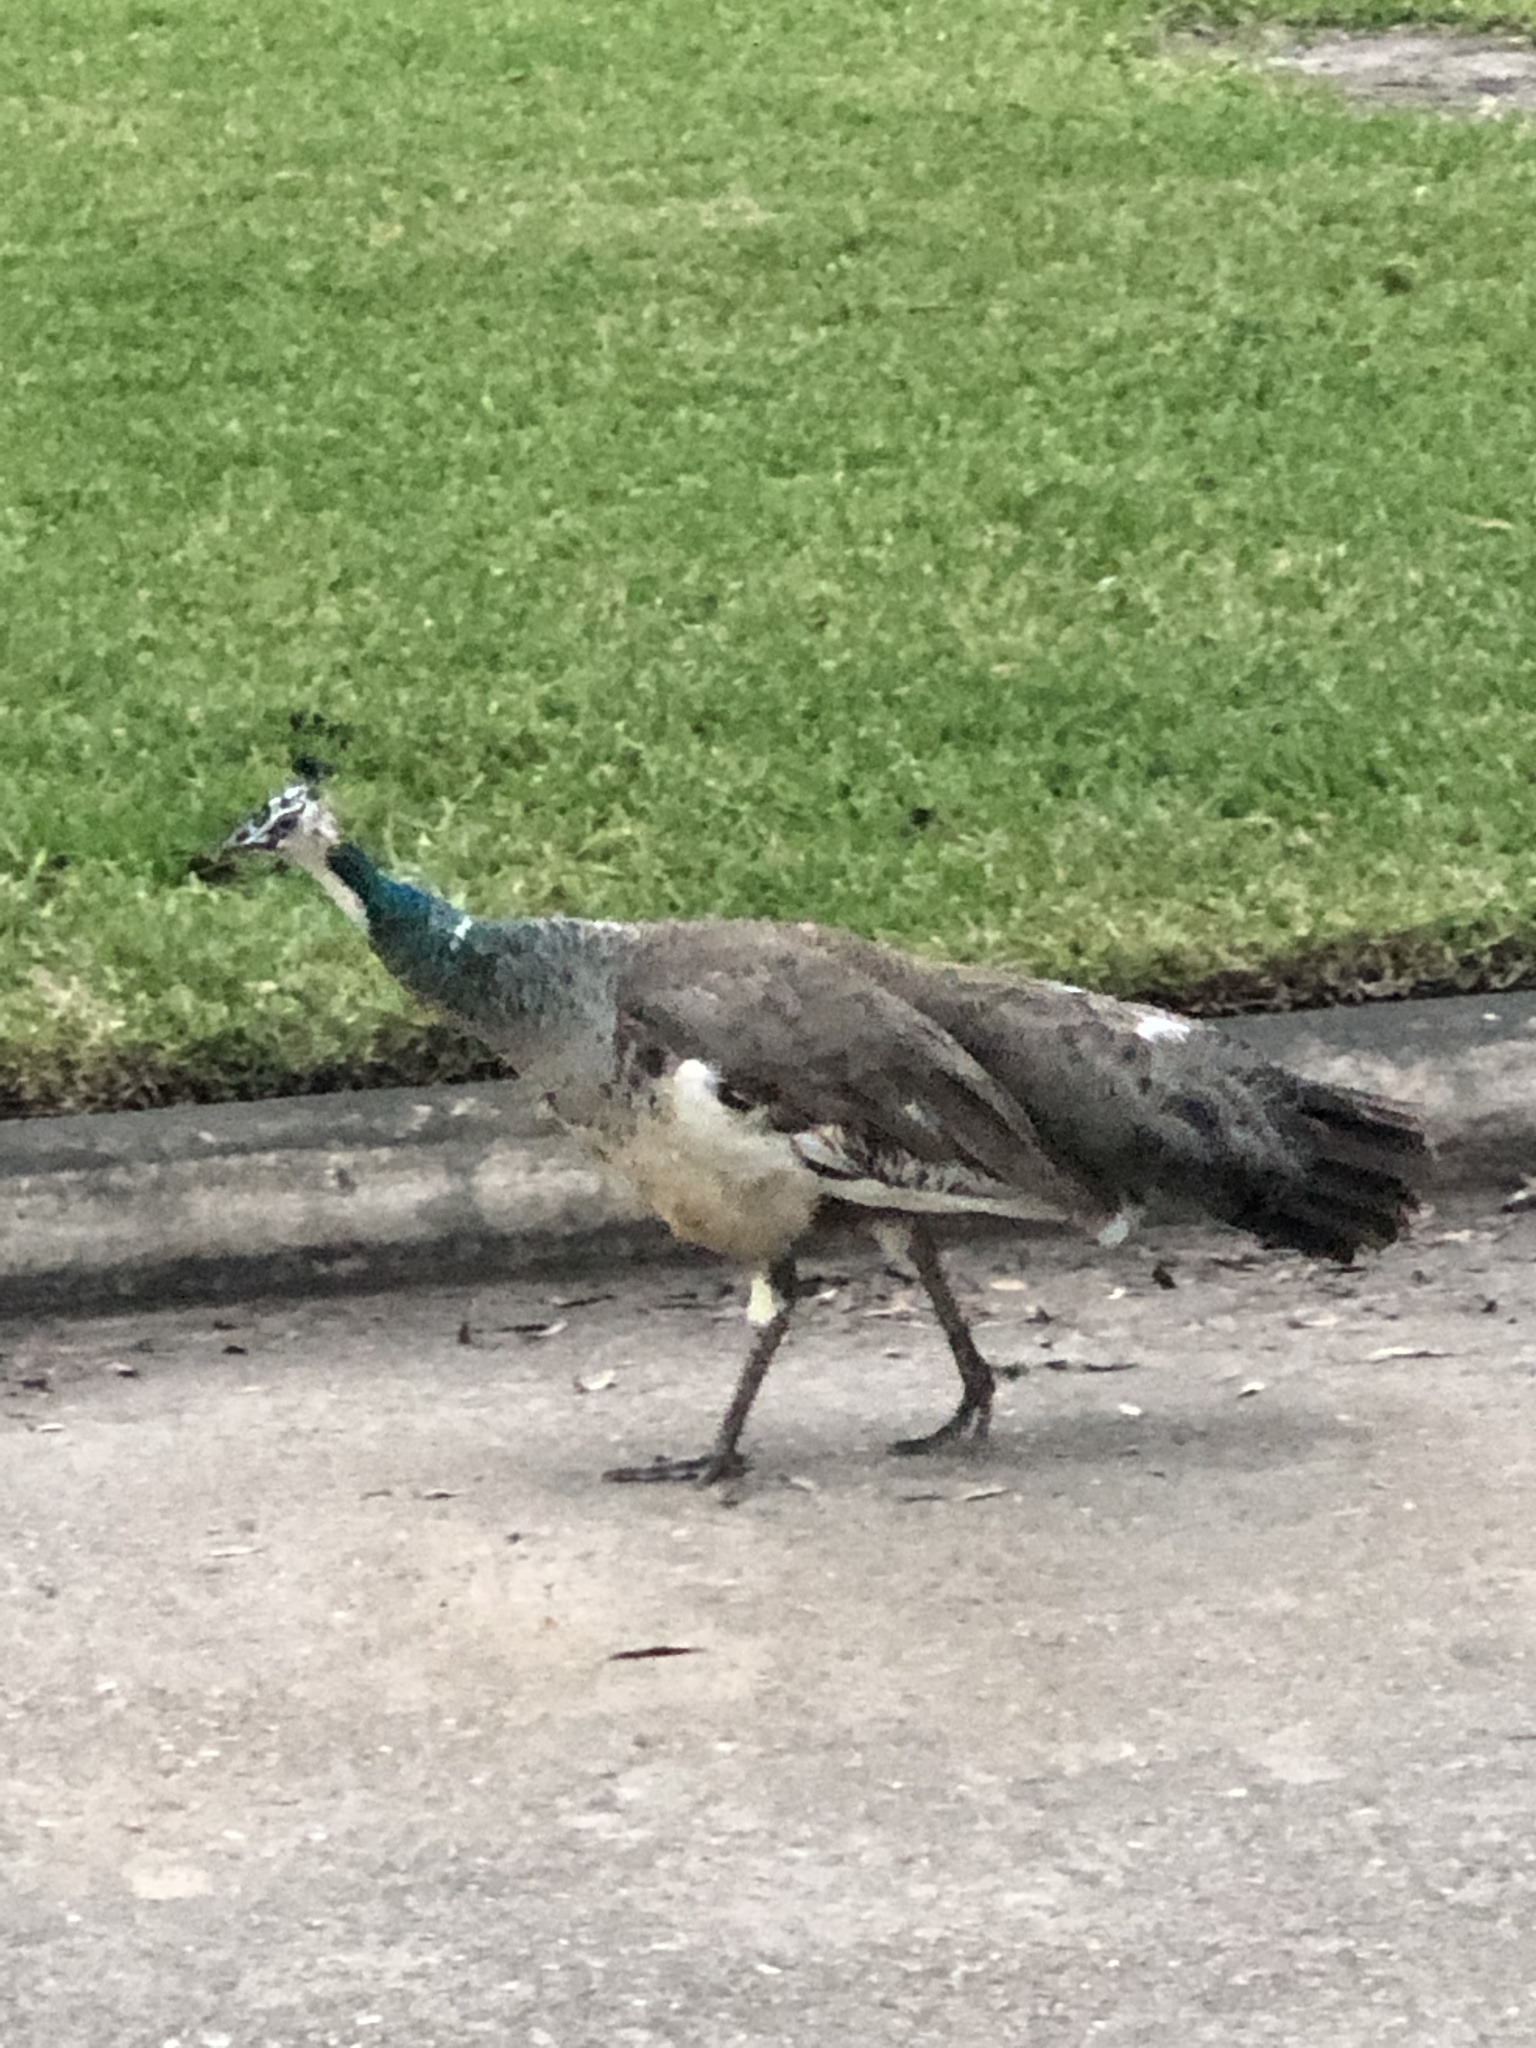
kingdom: Animalia
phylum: Chordata
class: Aves
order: Galliformes
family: Phasianidae
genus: Pavo
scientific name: Pavo cristatus
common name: Indian peafowl
